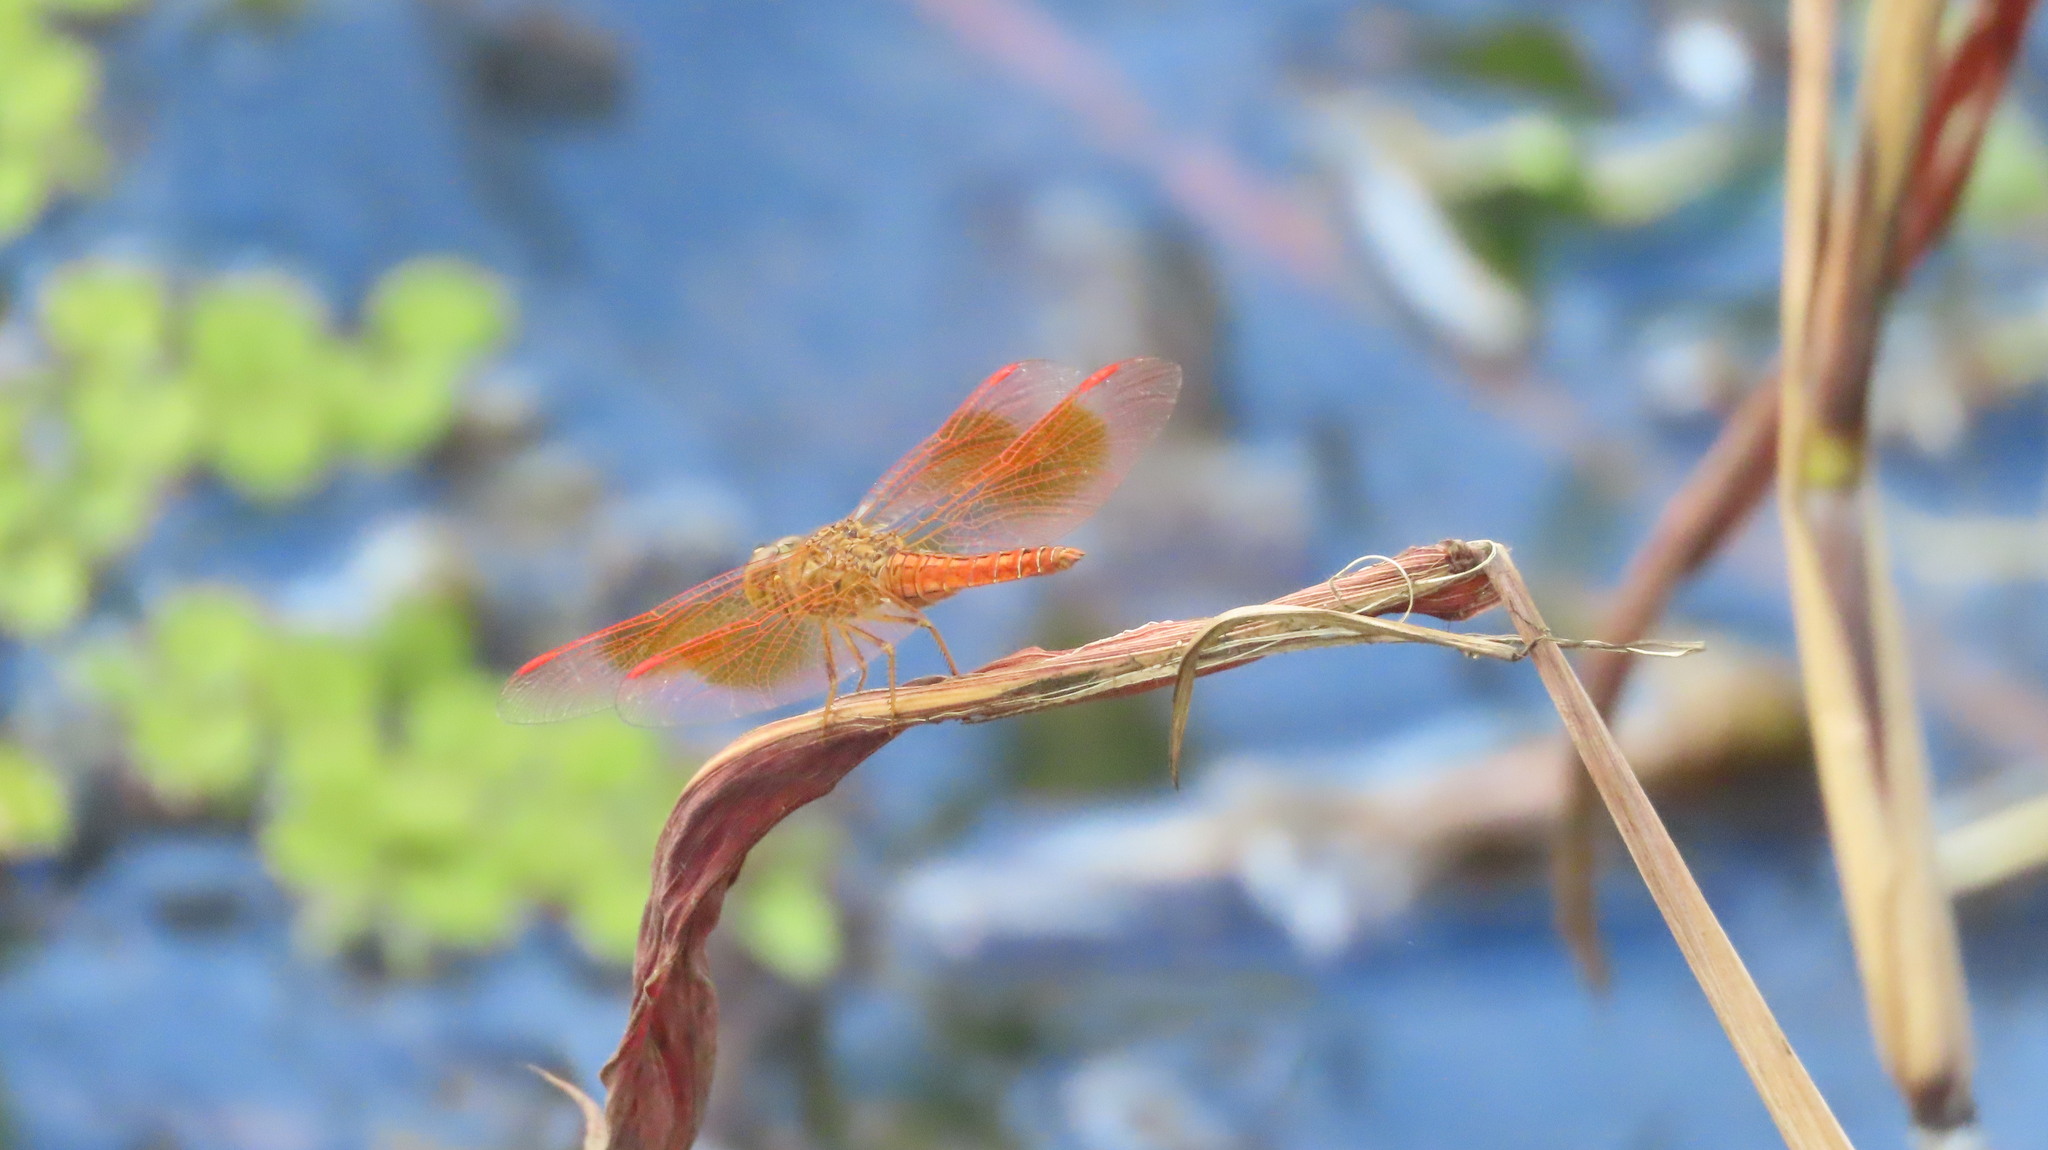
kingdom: Animalia
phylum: Arthropoda
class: Insecta
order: Odonata
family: Libellulidae
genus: Brachythemis
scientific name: Brachythemis contaminata
